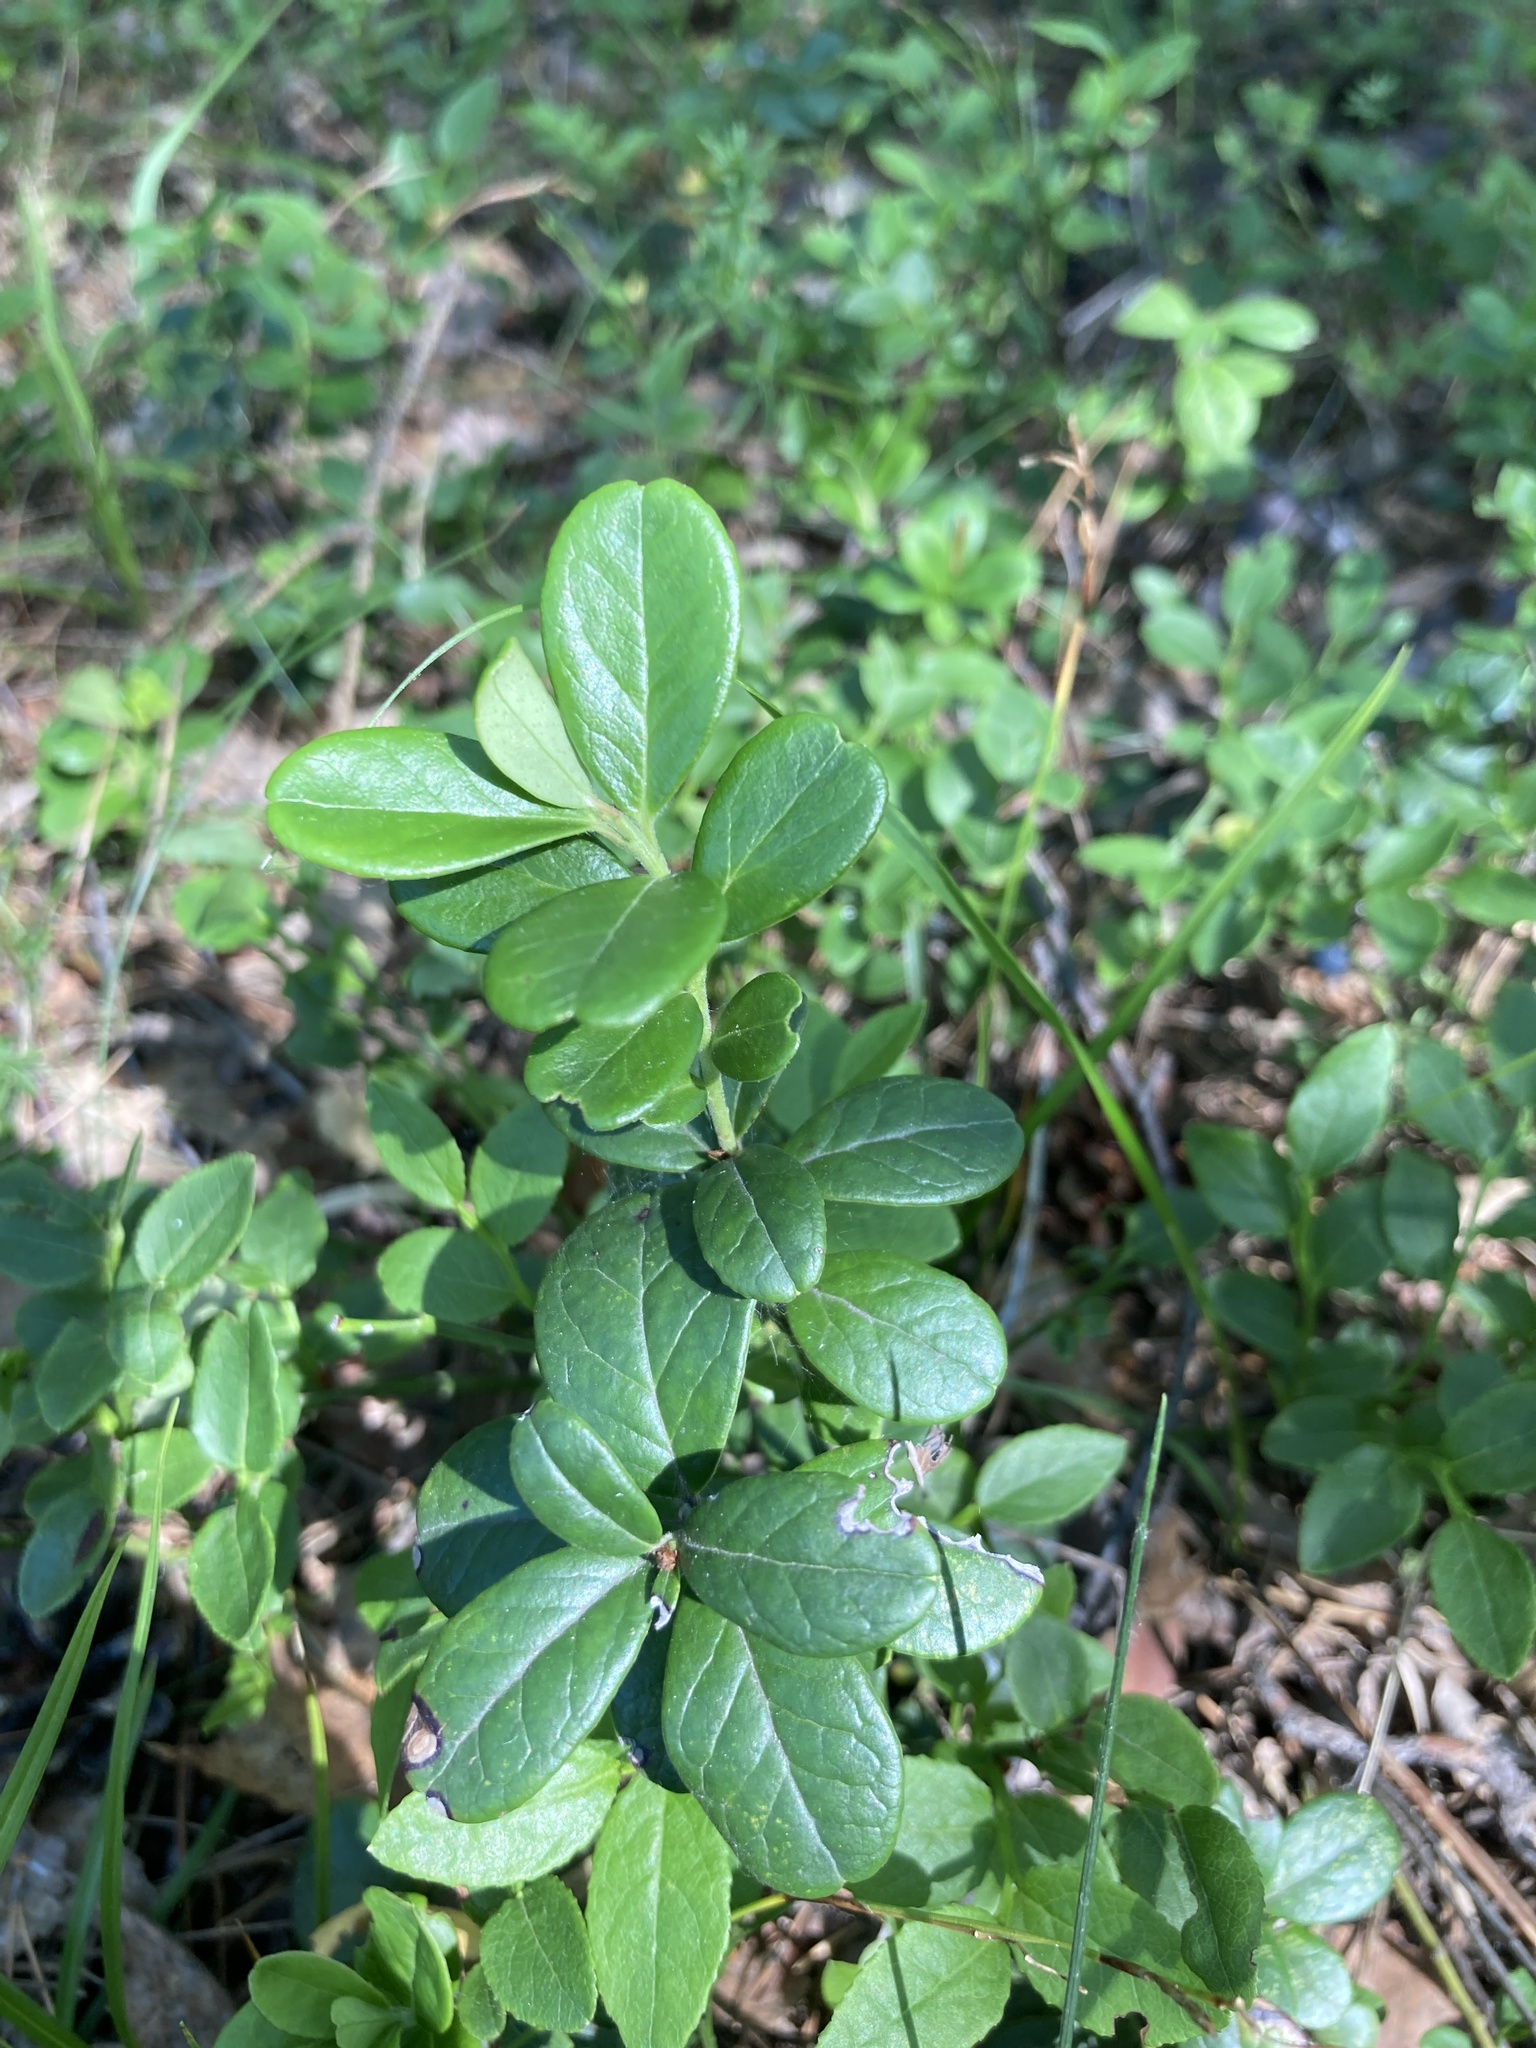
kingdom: Plantae
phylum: Tracheophyta
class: Magnoliopsida
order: Ericales
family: Ericaceae
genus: Vaccinium
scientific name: Vaccinium vitis-idaea
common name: Cowberry
